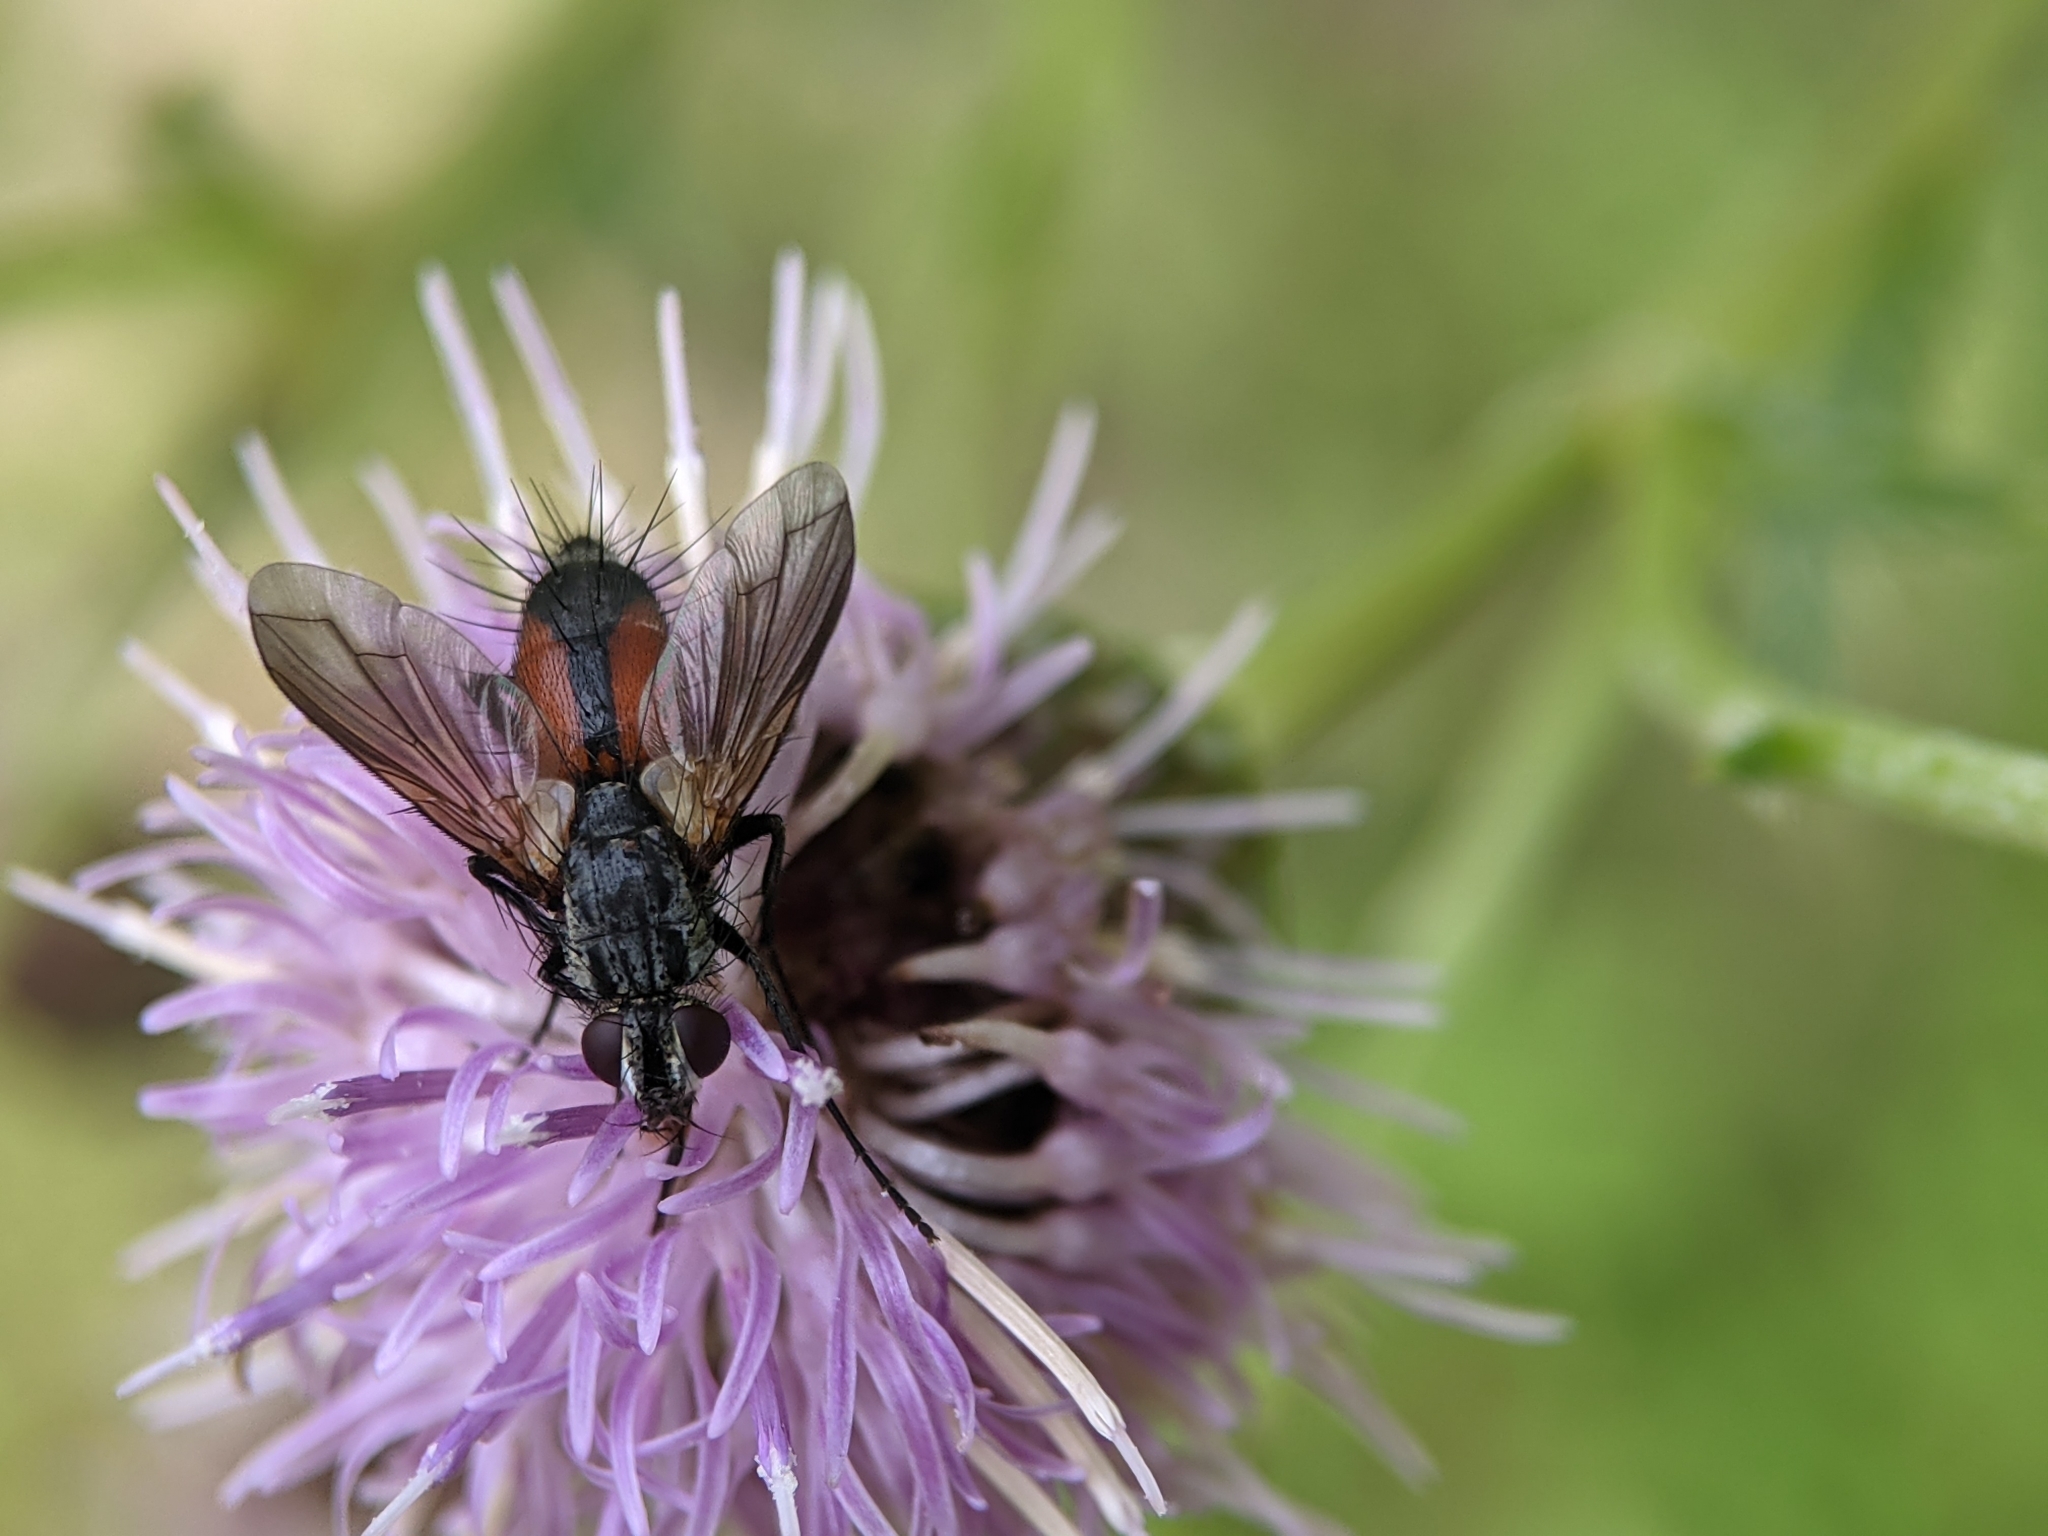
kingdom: Animalia
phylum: Arthropoda
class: Insecta
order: Diptera
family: Tachinidae
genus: Eriothrix
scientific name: Eriothrix rufomaculatus
